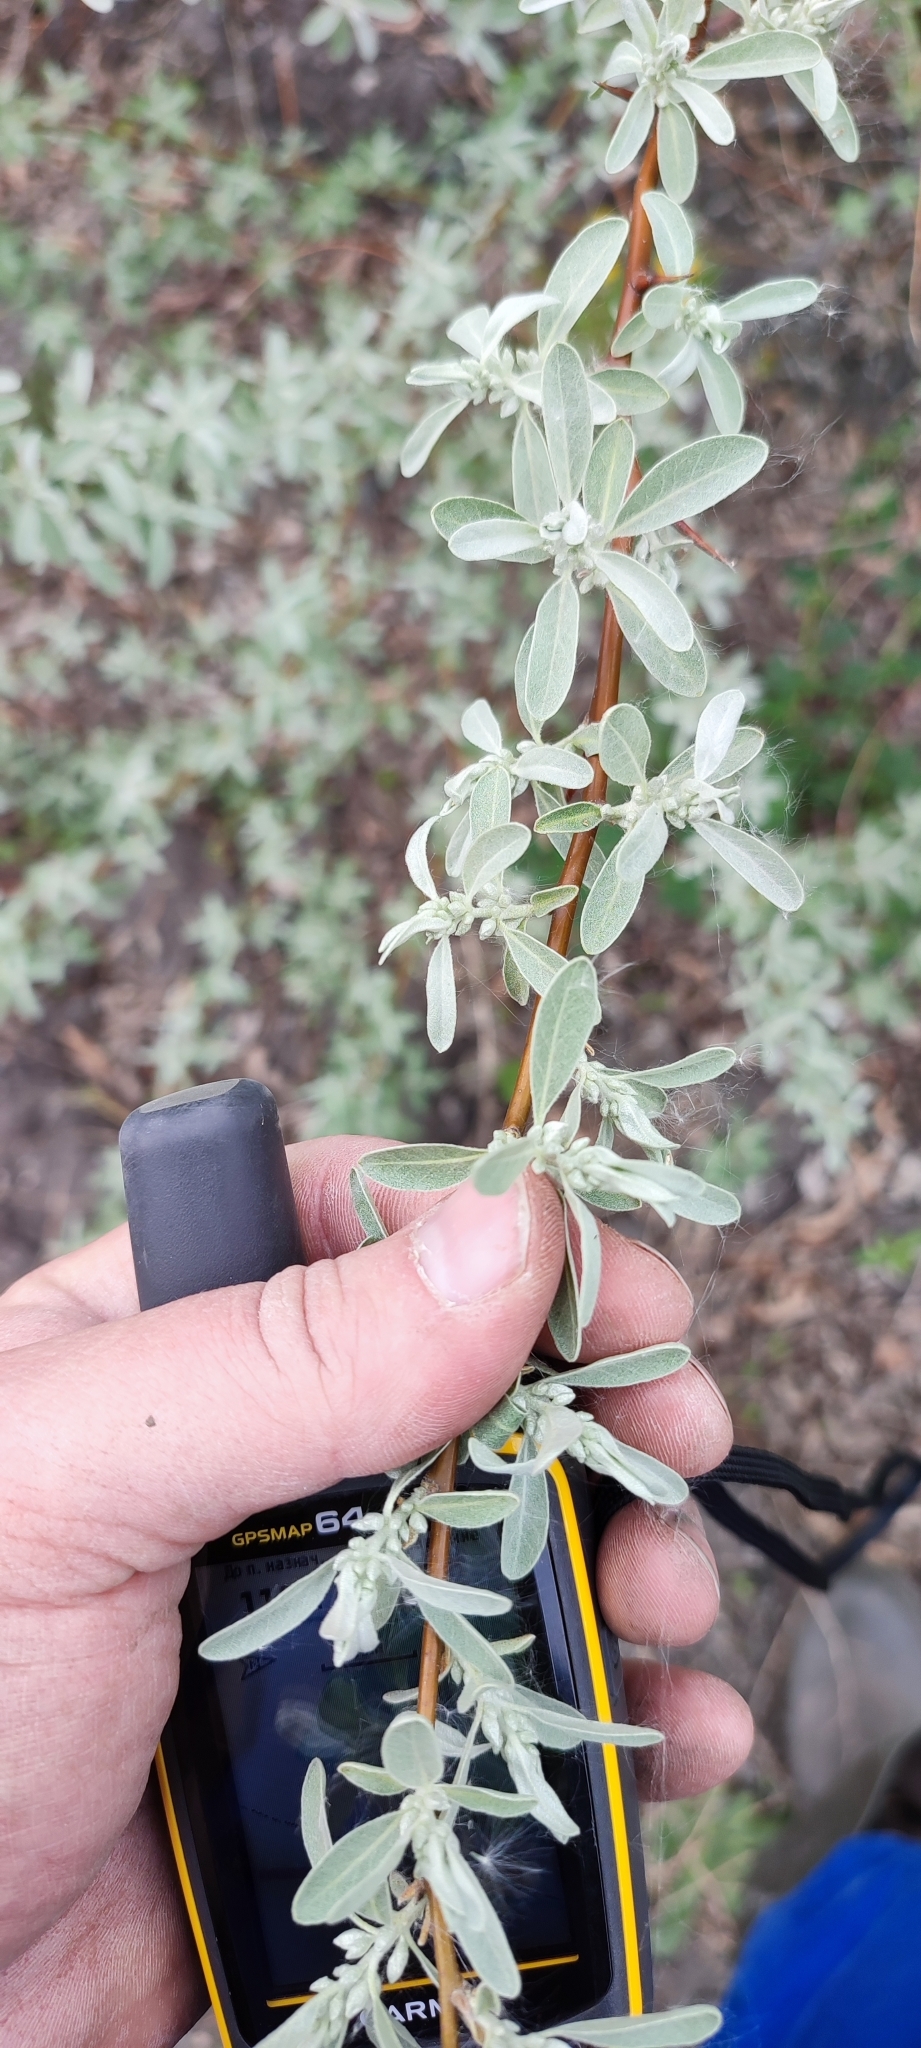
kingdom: Plantae
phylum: Tracheophyta
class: Magnoliopsida
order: Rosales
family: Elaeagnaceae
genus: Elaeagnus
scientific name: Elaeagnus angustifolia
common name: Russian olive
